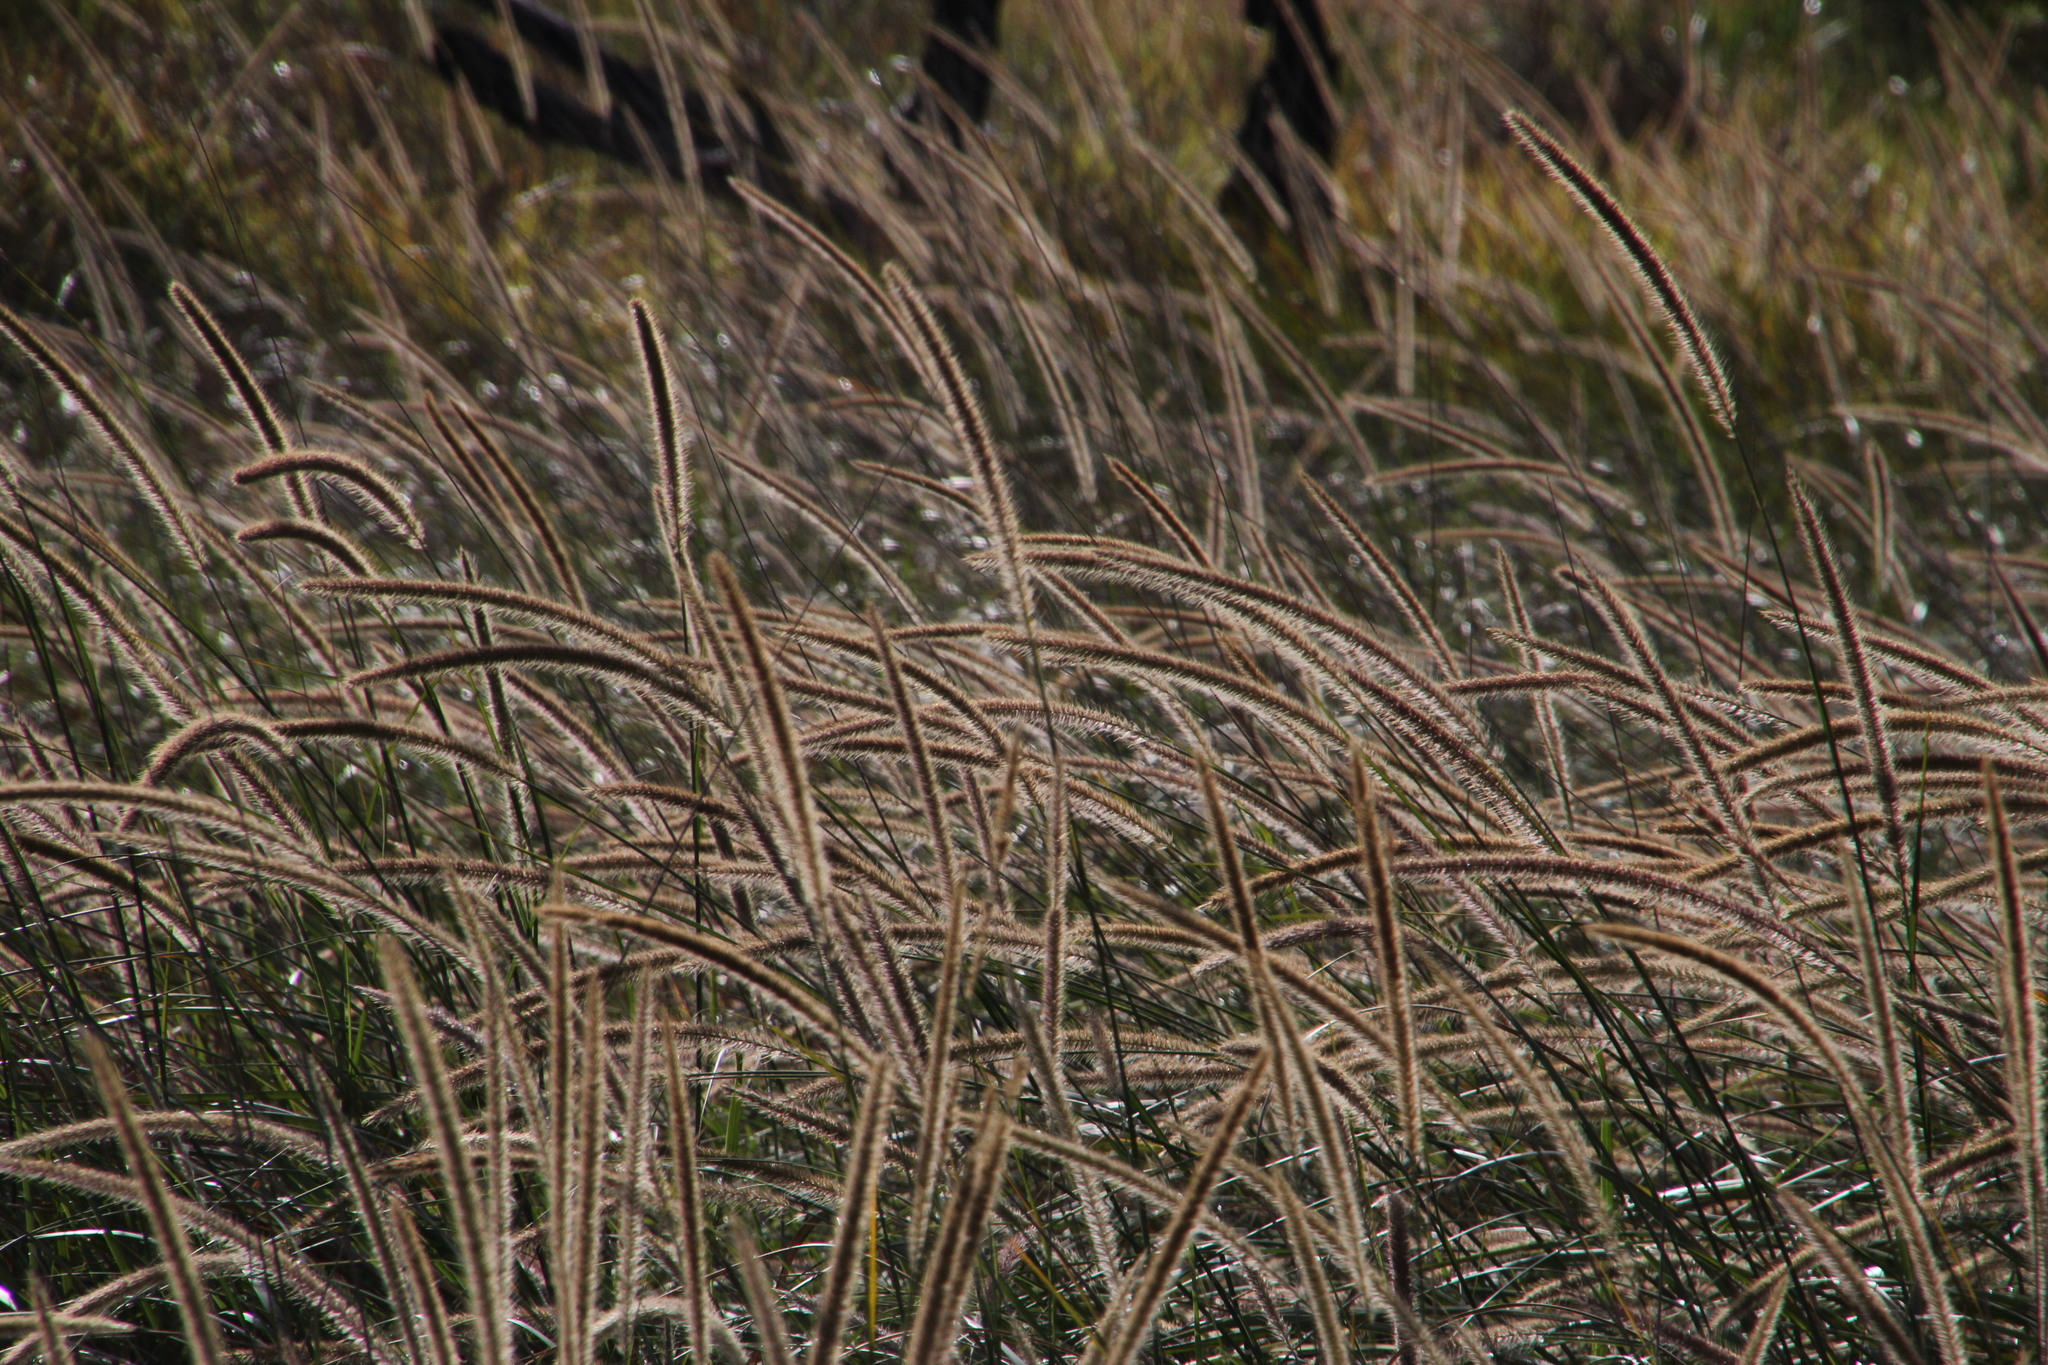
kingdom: Plantae
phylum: Tracheophyta
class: Liliopsida
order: Poales
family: Poaceae
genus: Cenchrus
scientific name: Cenchrus caudatus
